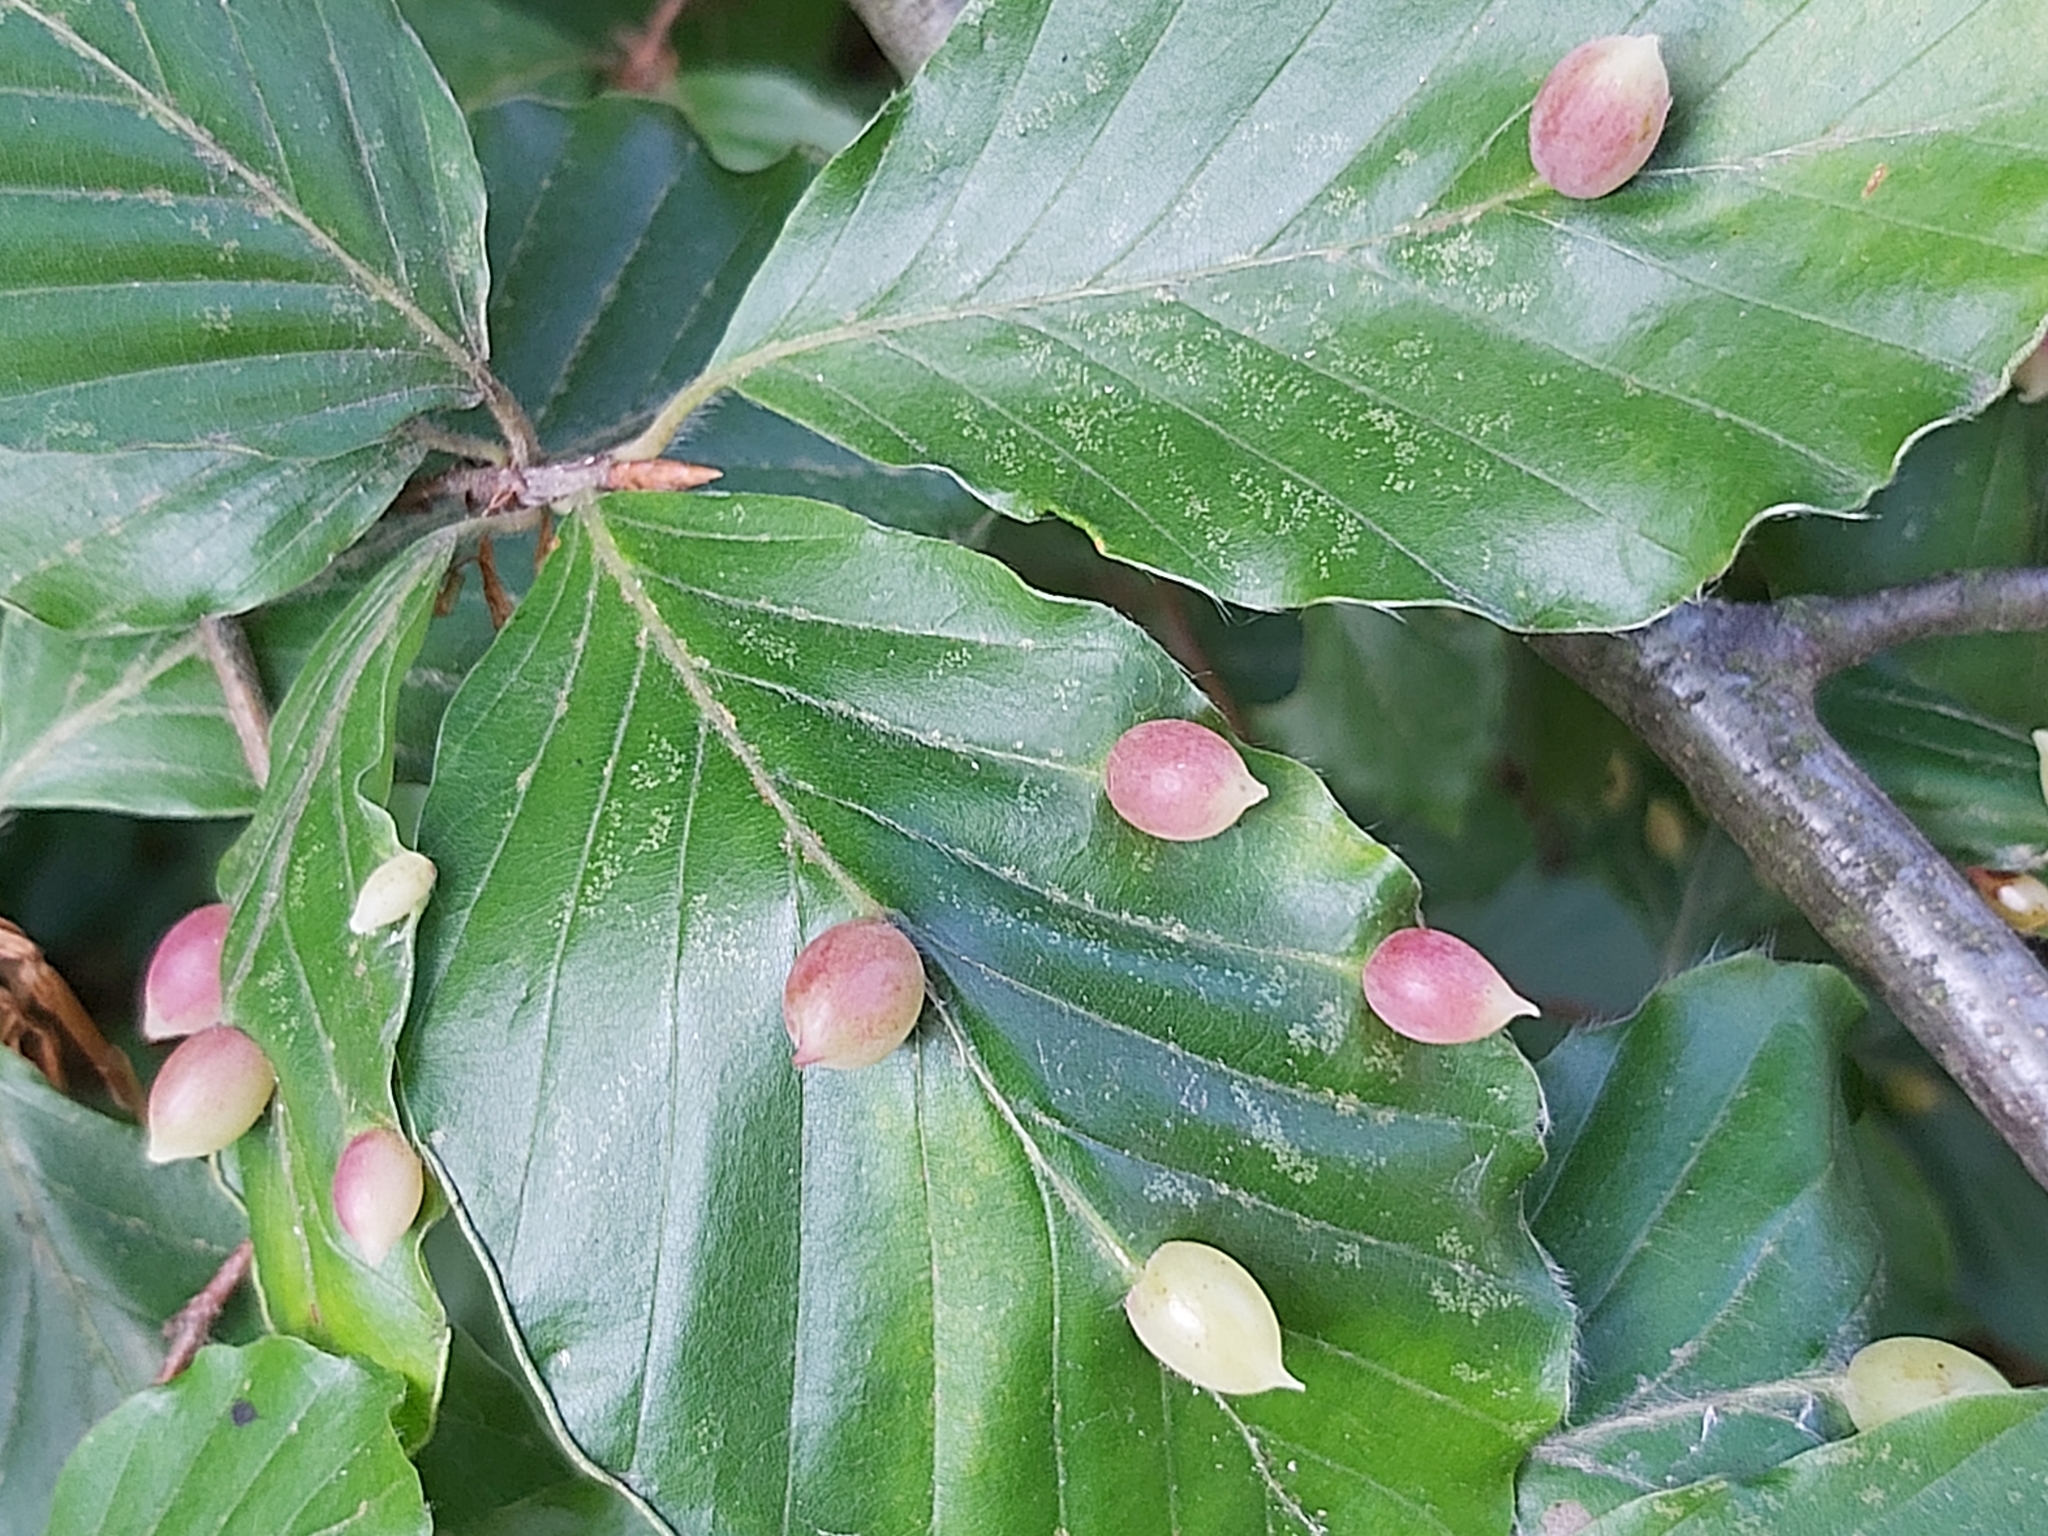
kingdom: Animalia
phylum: Arthropoda
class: Insecta
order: Diptera
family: Cecidomyiidae
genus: Mikiola
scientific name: Mikiola fagi
